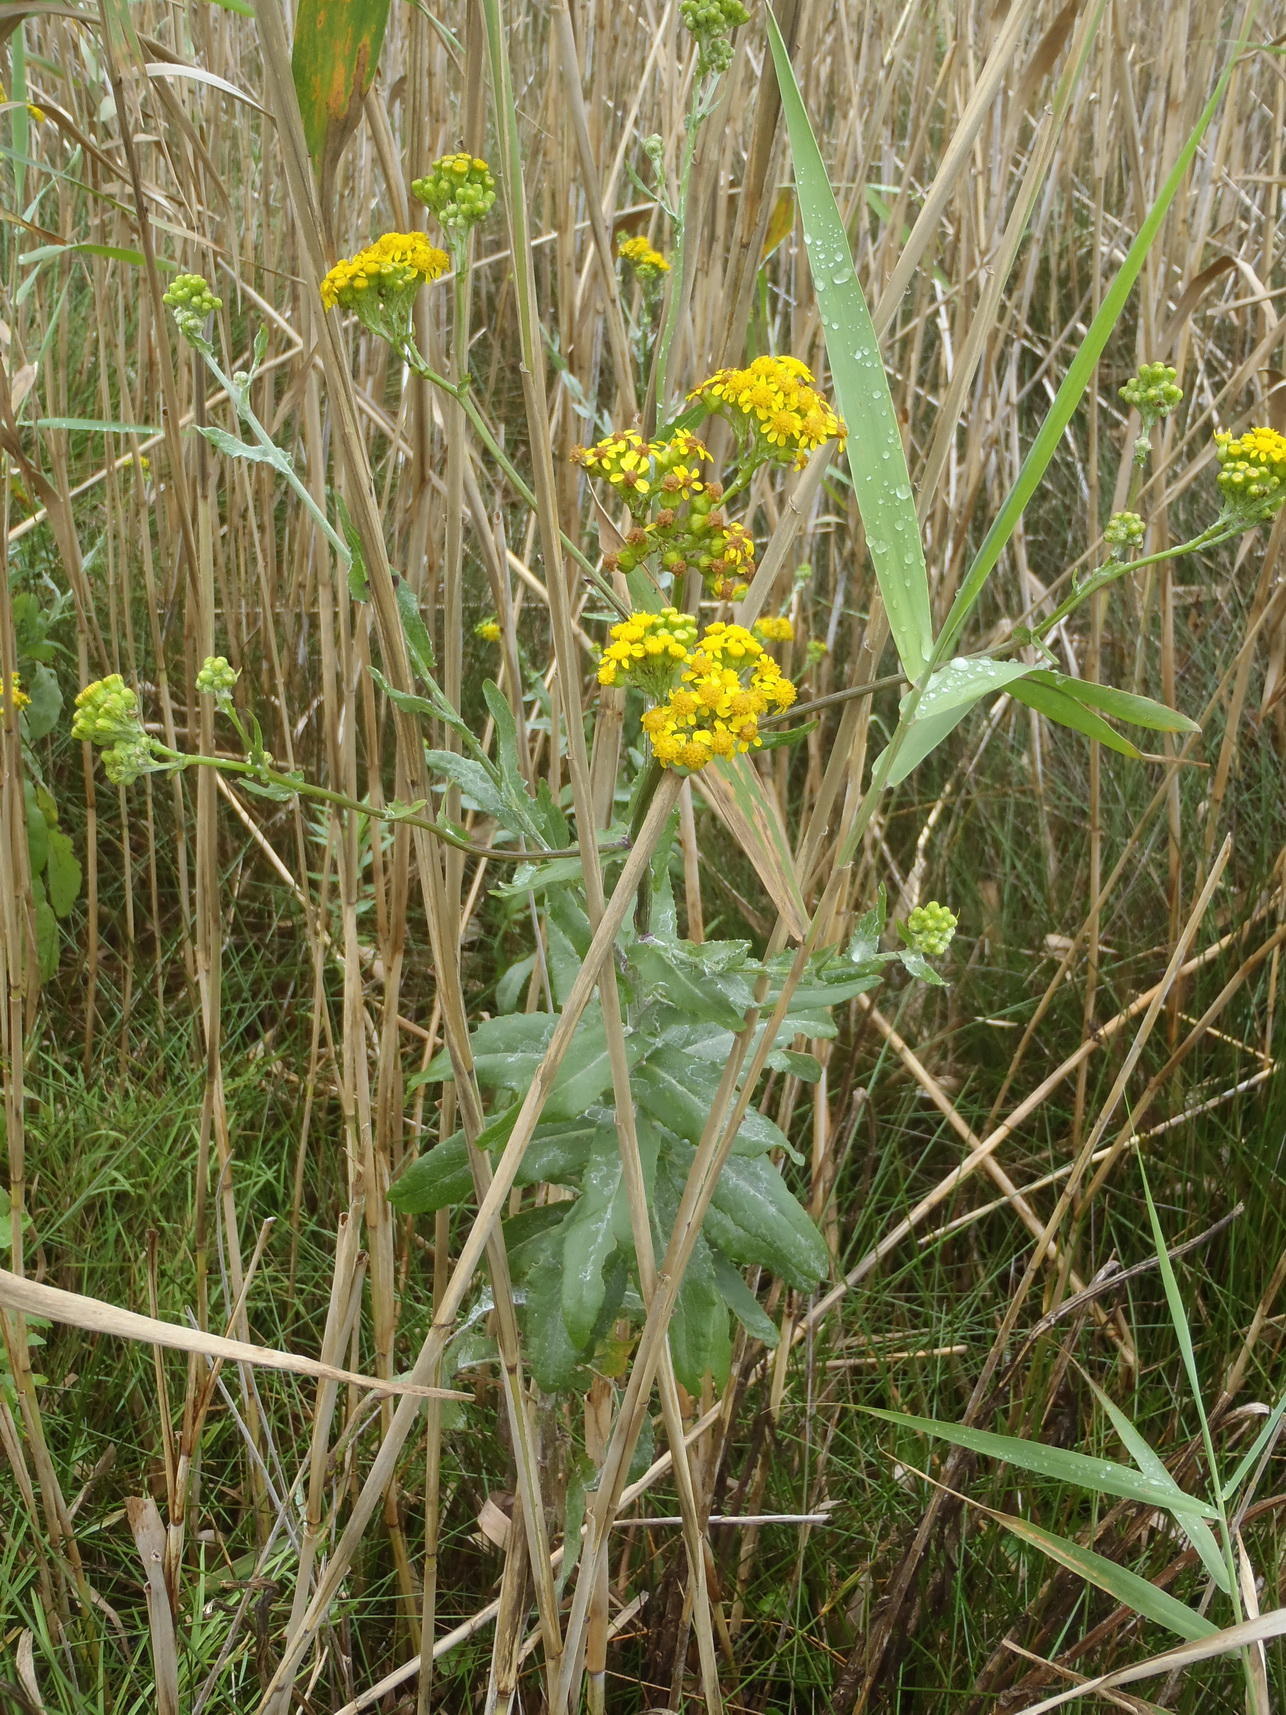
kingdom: Plantae
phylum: Tracheophyta
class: Magnoliopsida
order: Asterales
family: Asteraceae
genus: Senecio
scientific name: Senecio halimifolius
